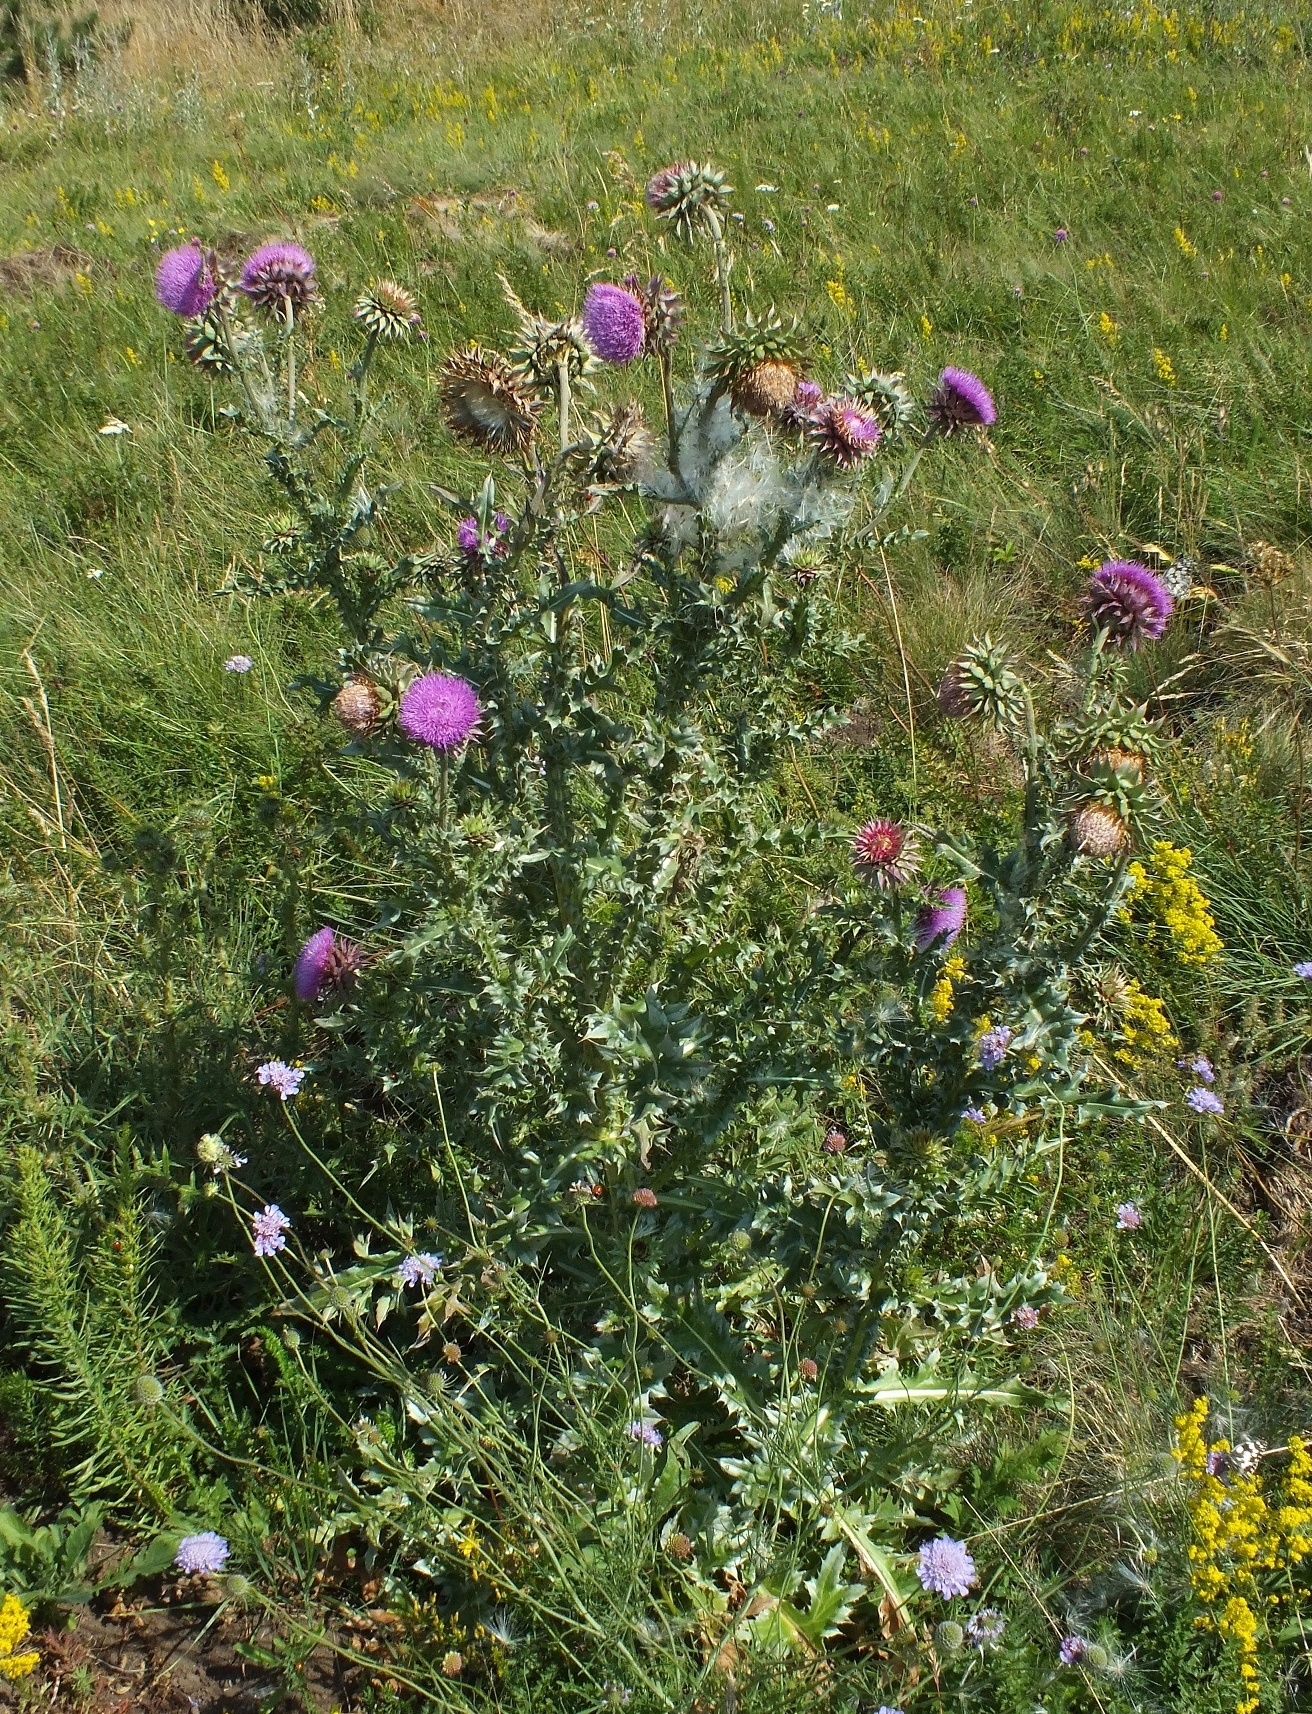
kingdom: Plantae
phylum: Tracheophyta
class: Magnoliopsida
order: Asterales
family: Asteraceae
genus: Carduus
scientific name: Carduus nutans
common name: Musk thistle
